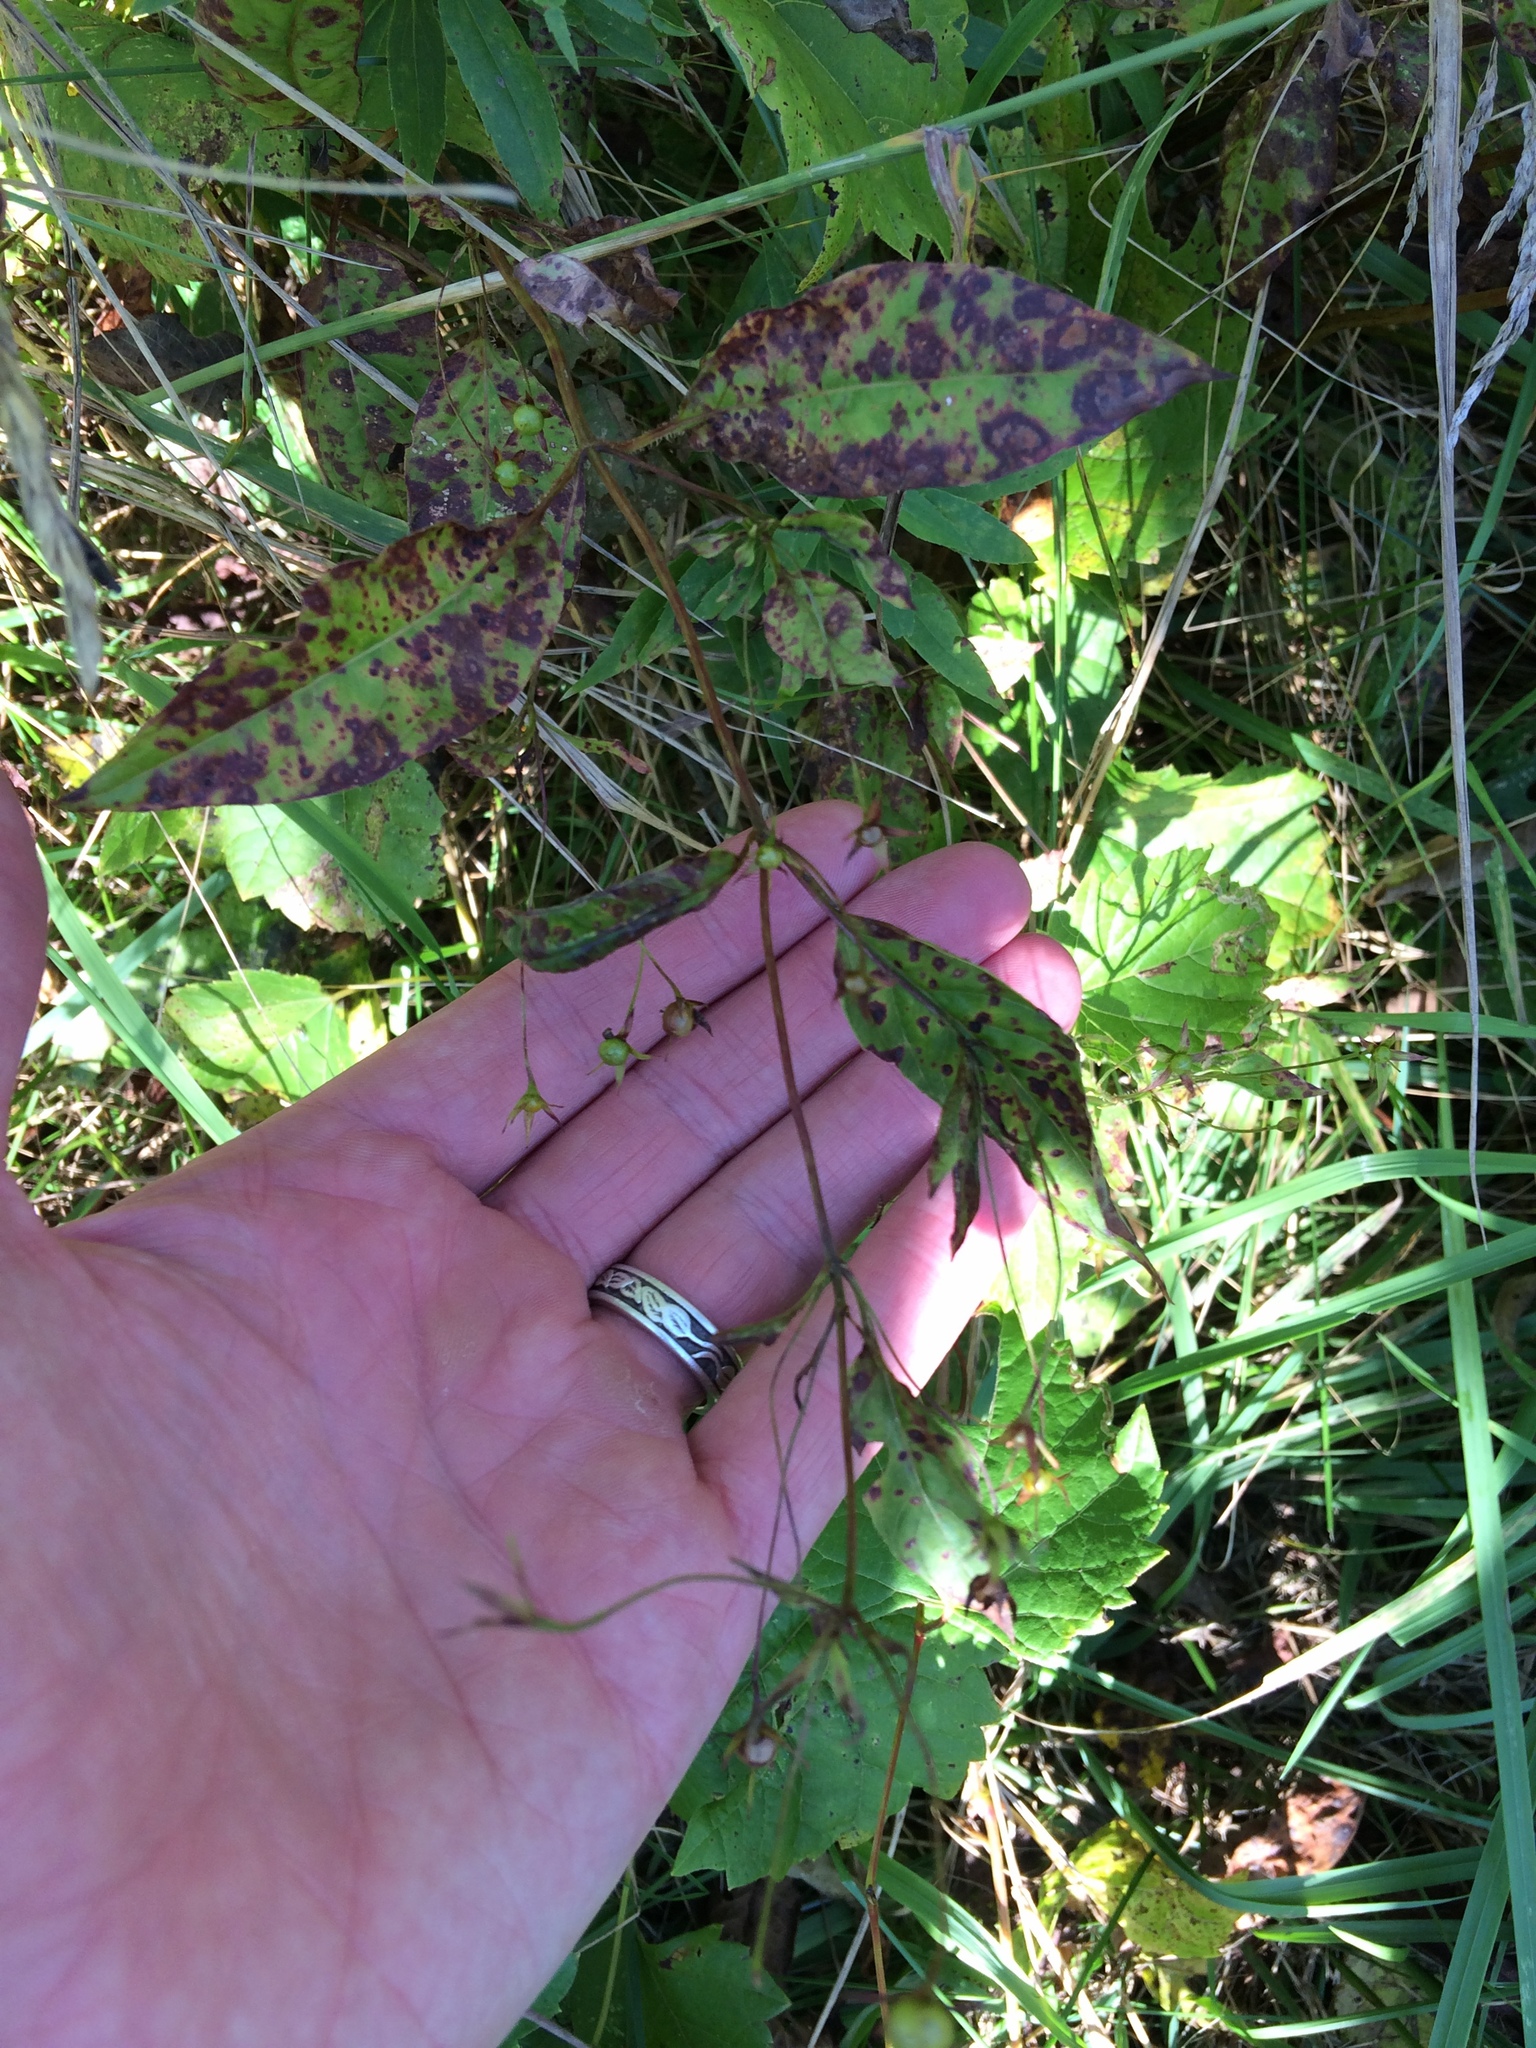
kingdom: Plantae
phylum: Tracheophyta
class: Magnoliopsida
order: Ericales
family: Primulaceae
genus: Lysimachia
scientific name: Lysimachia ciliata
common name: Fringed loosestrife
